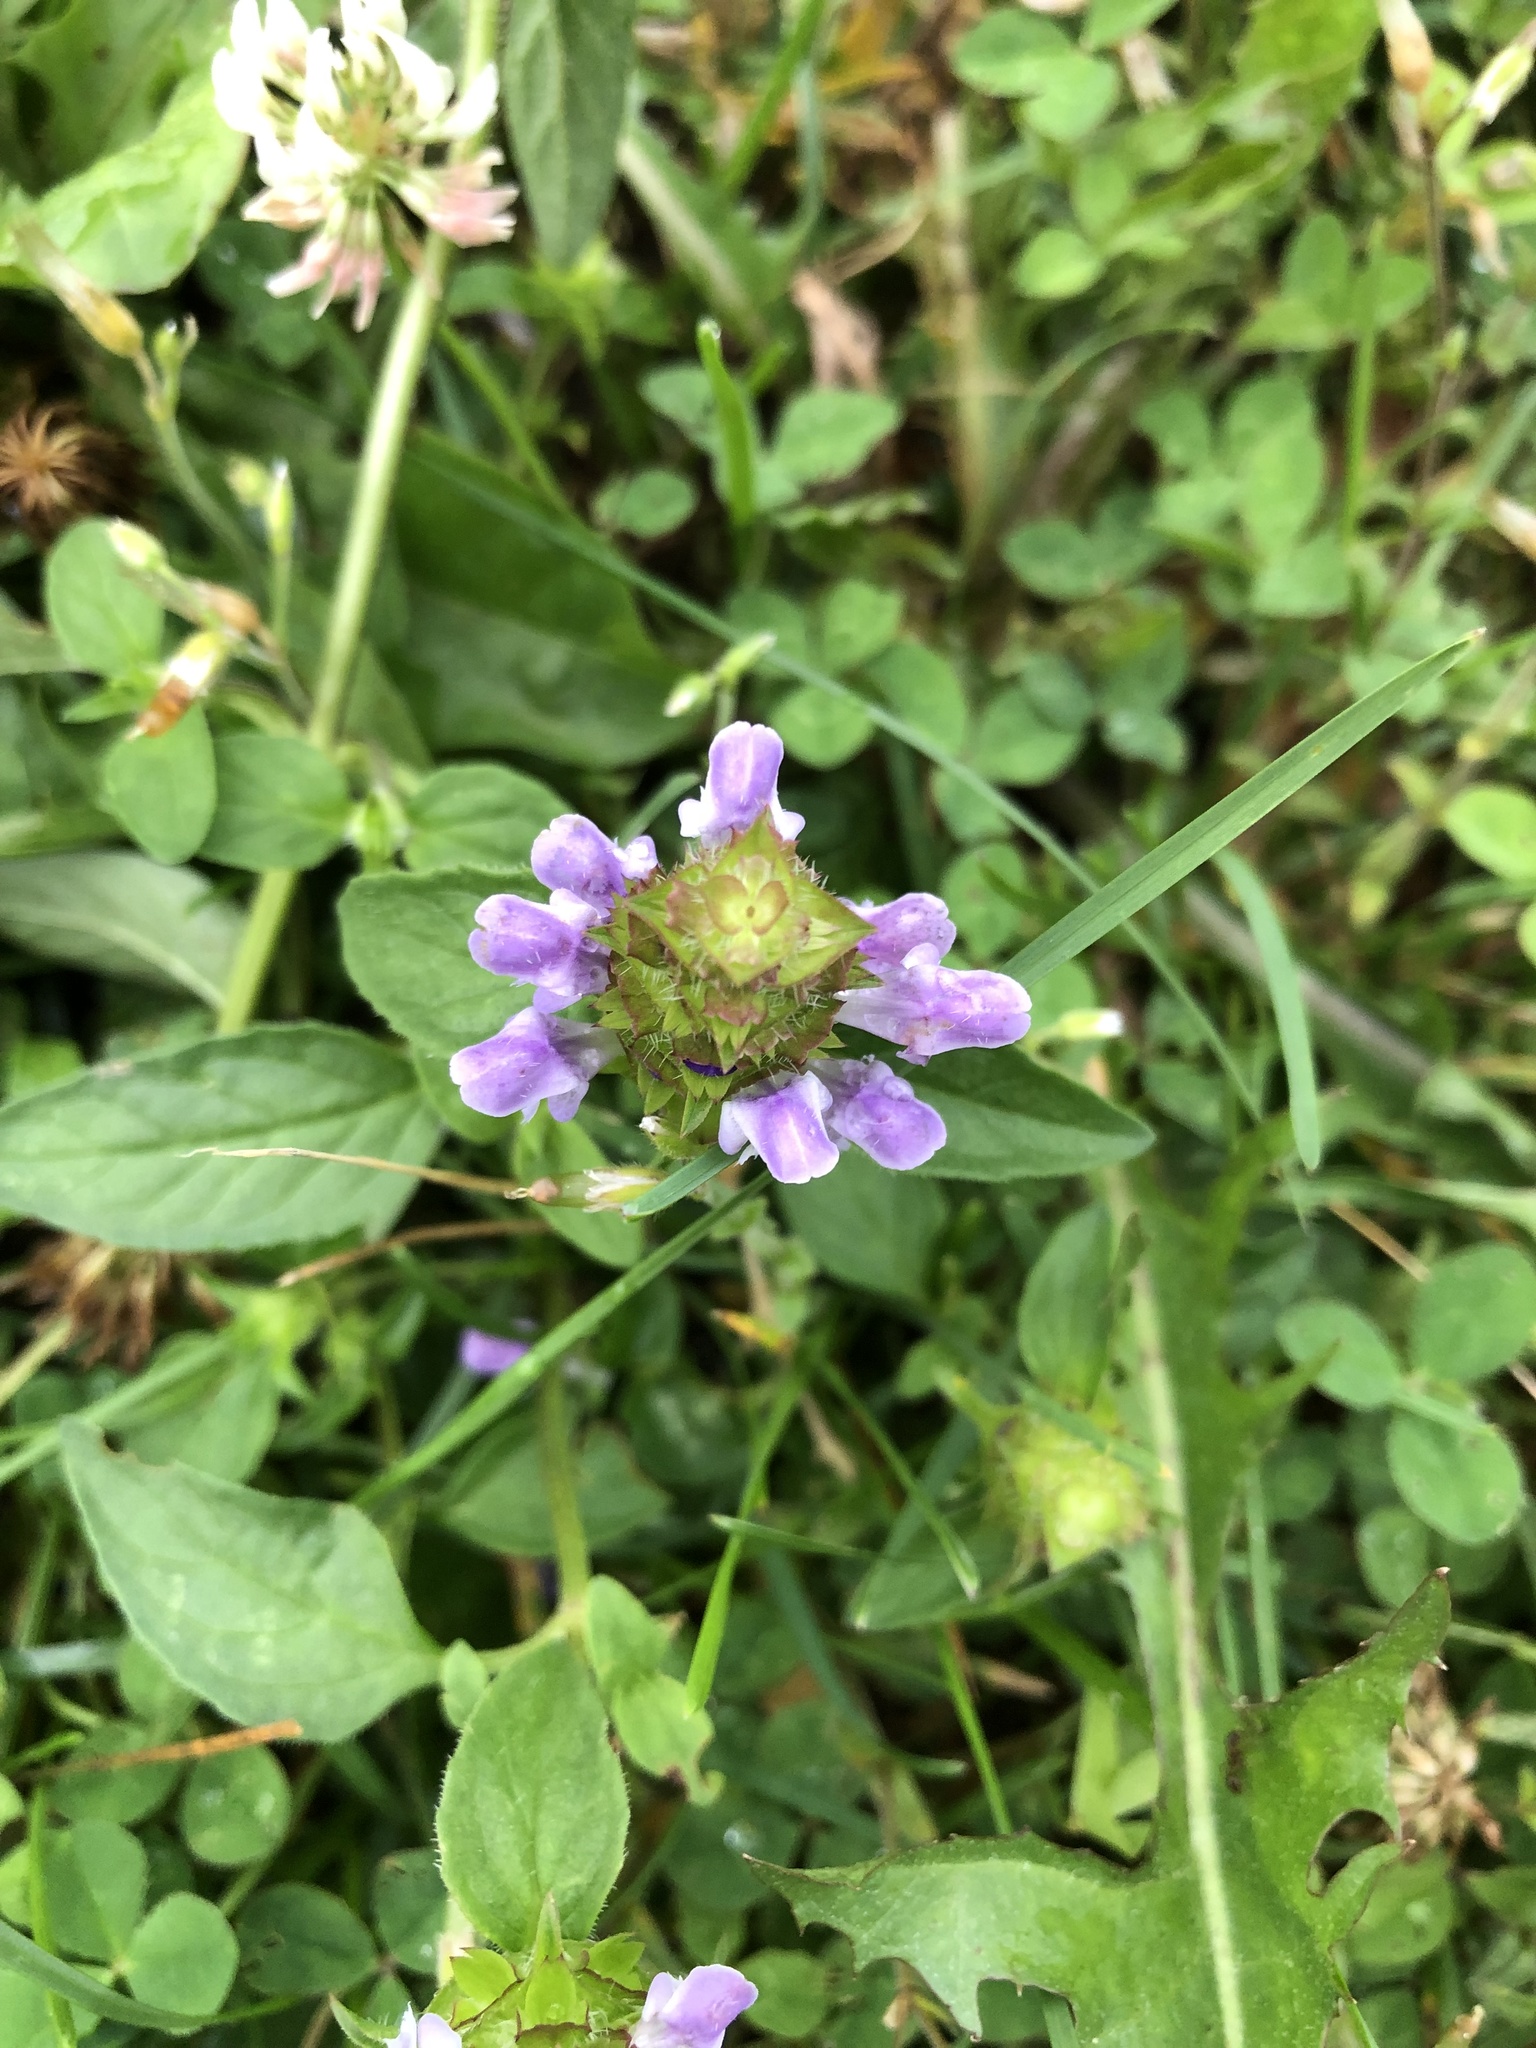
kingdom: Plantae
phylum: Tracheophyta
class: Magnoliopsida
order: Lamiales
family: Lamiaceae
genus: Prunella
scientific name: Prunella vulgaris
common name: Heal-all
